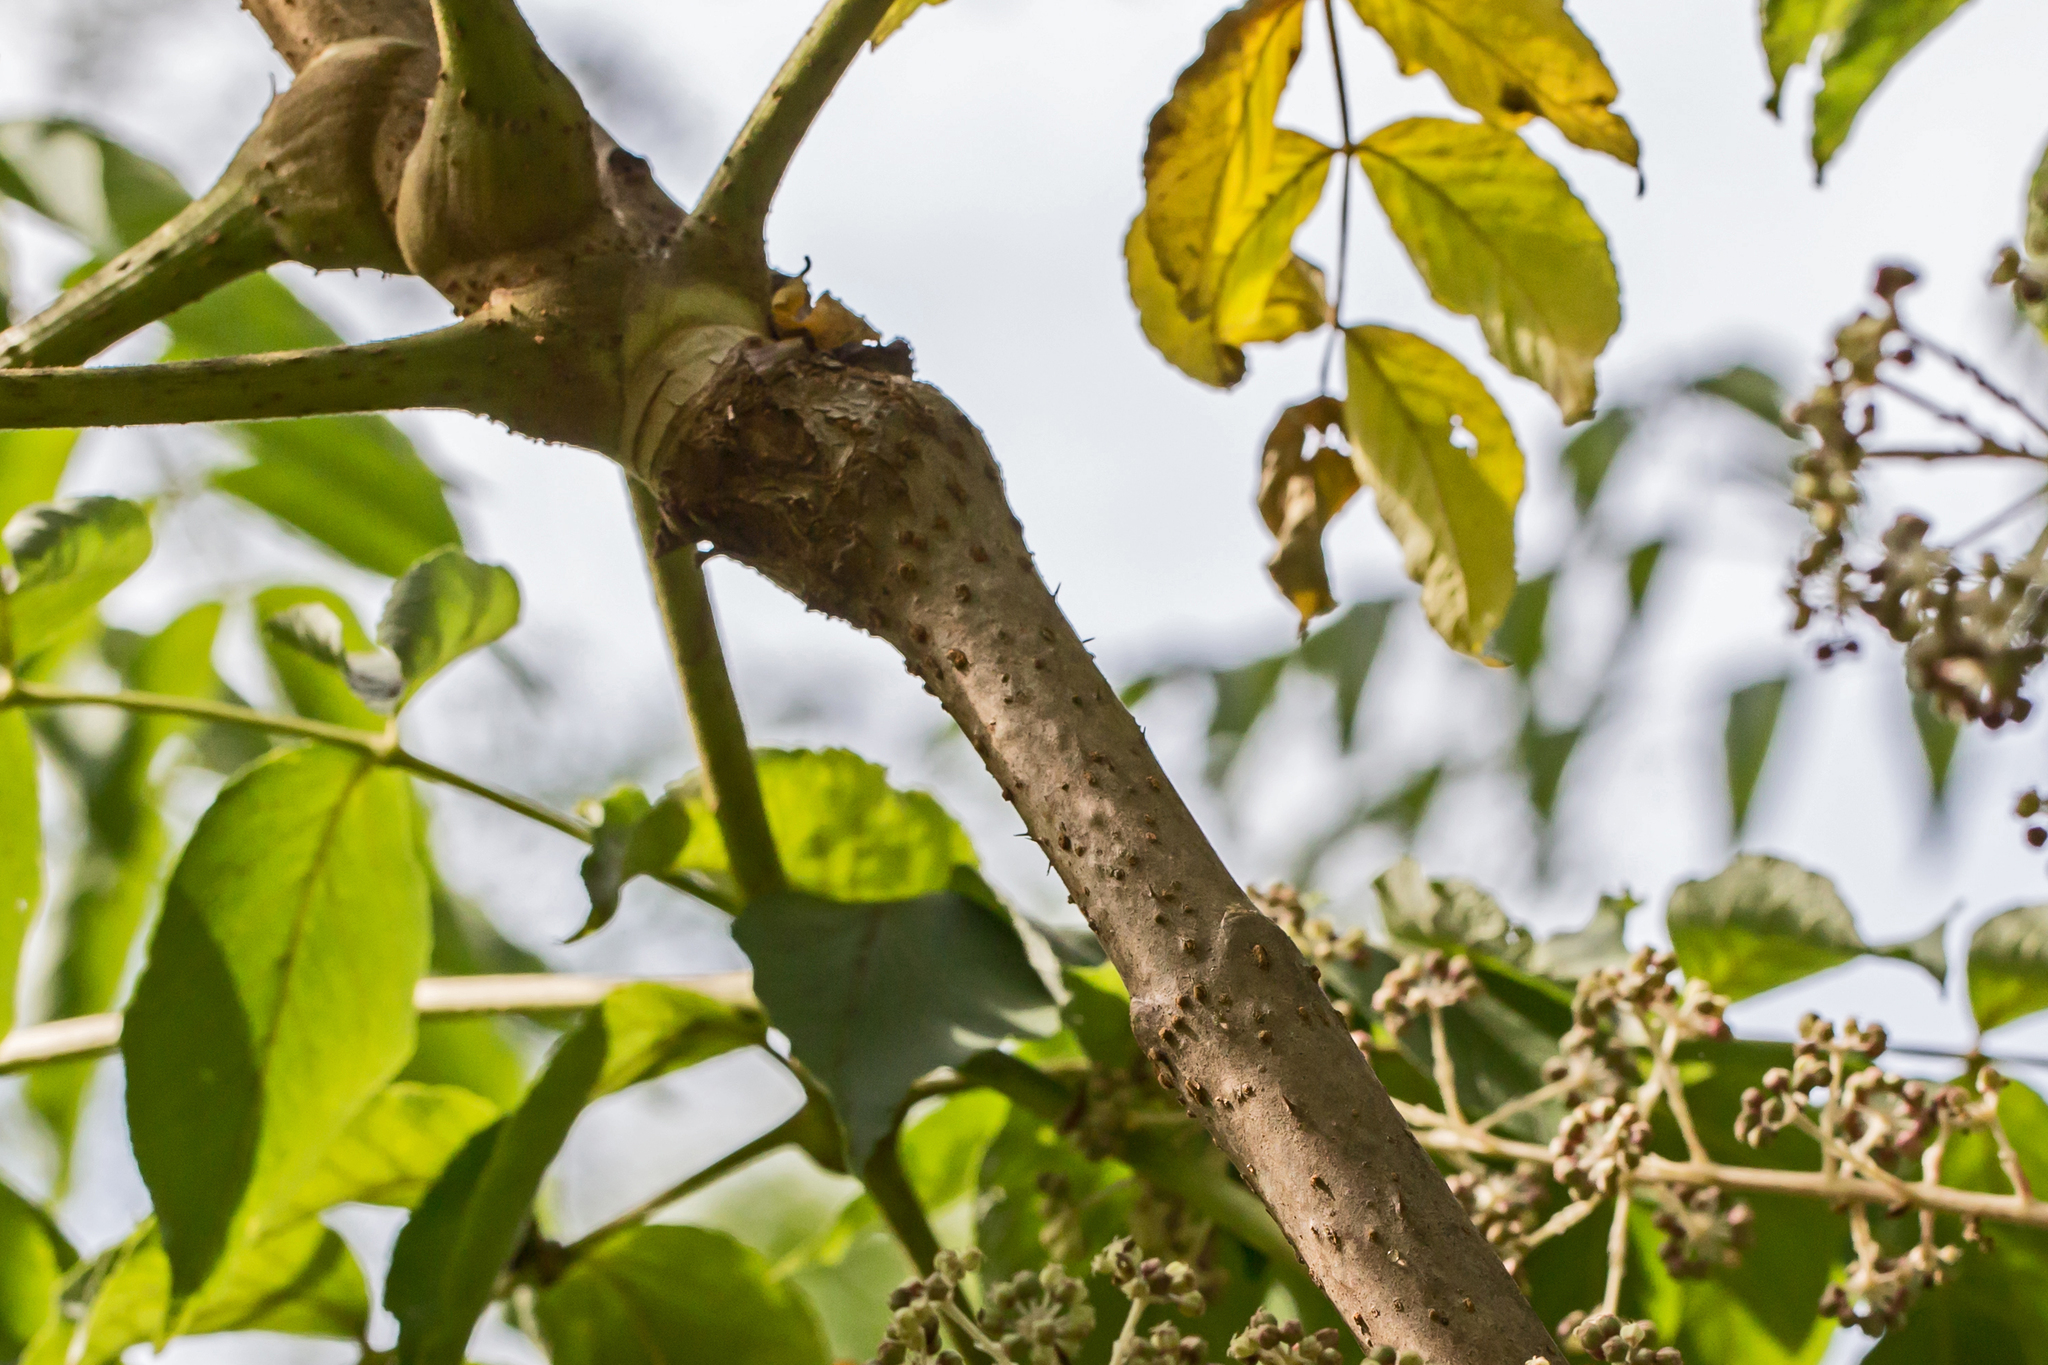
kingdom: Plantae
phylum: Tracheophyta
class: Magnoliopsida
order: Apiales
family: Araliaceae
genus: Aralia
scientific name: Aralia elata
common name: Japanese angelica-tree
